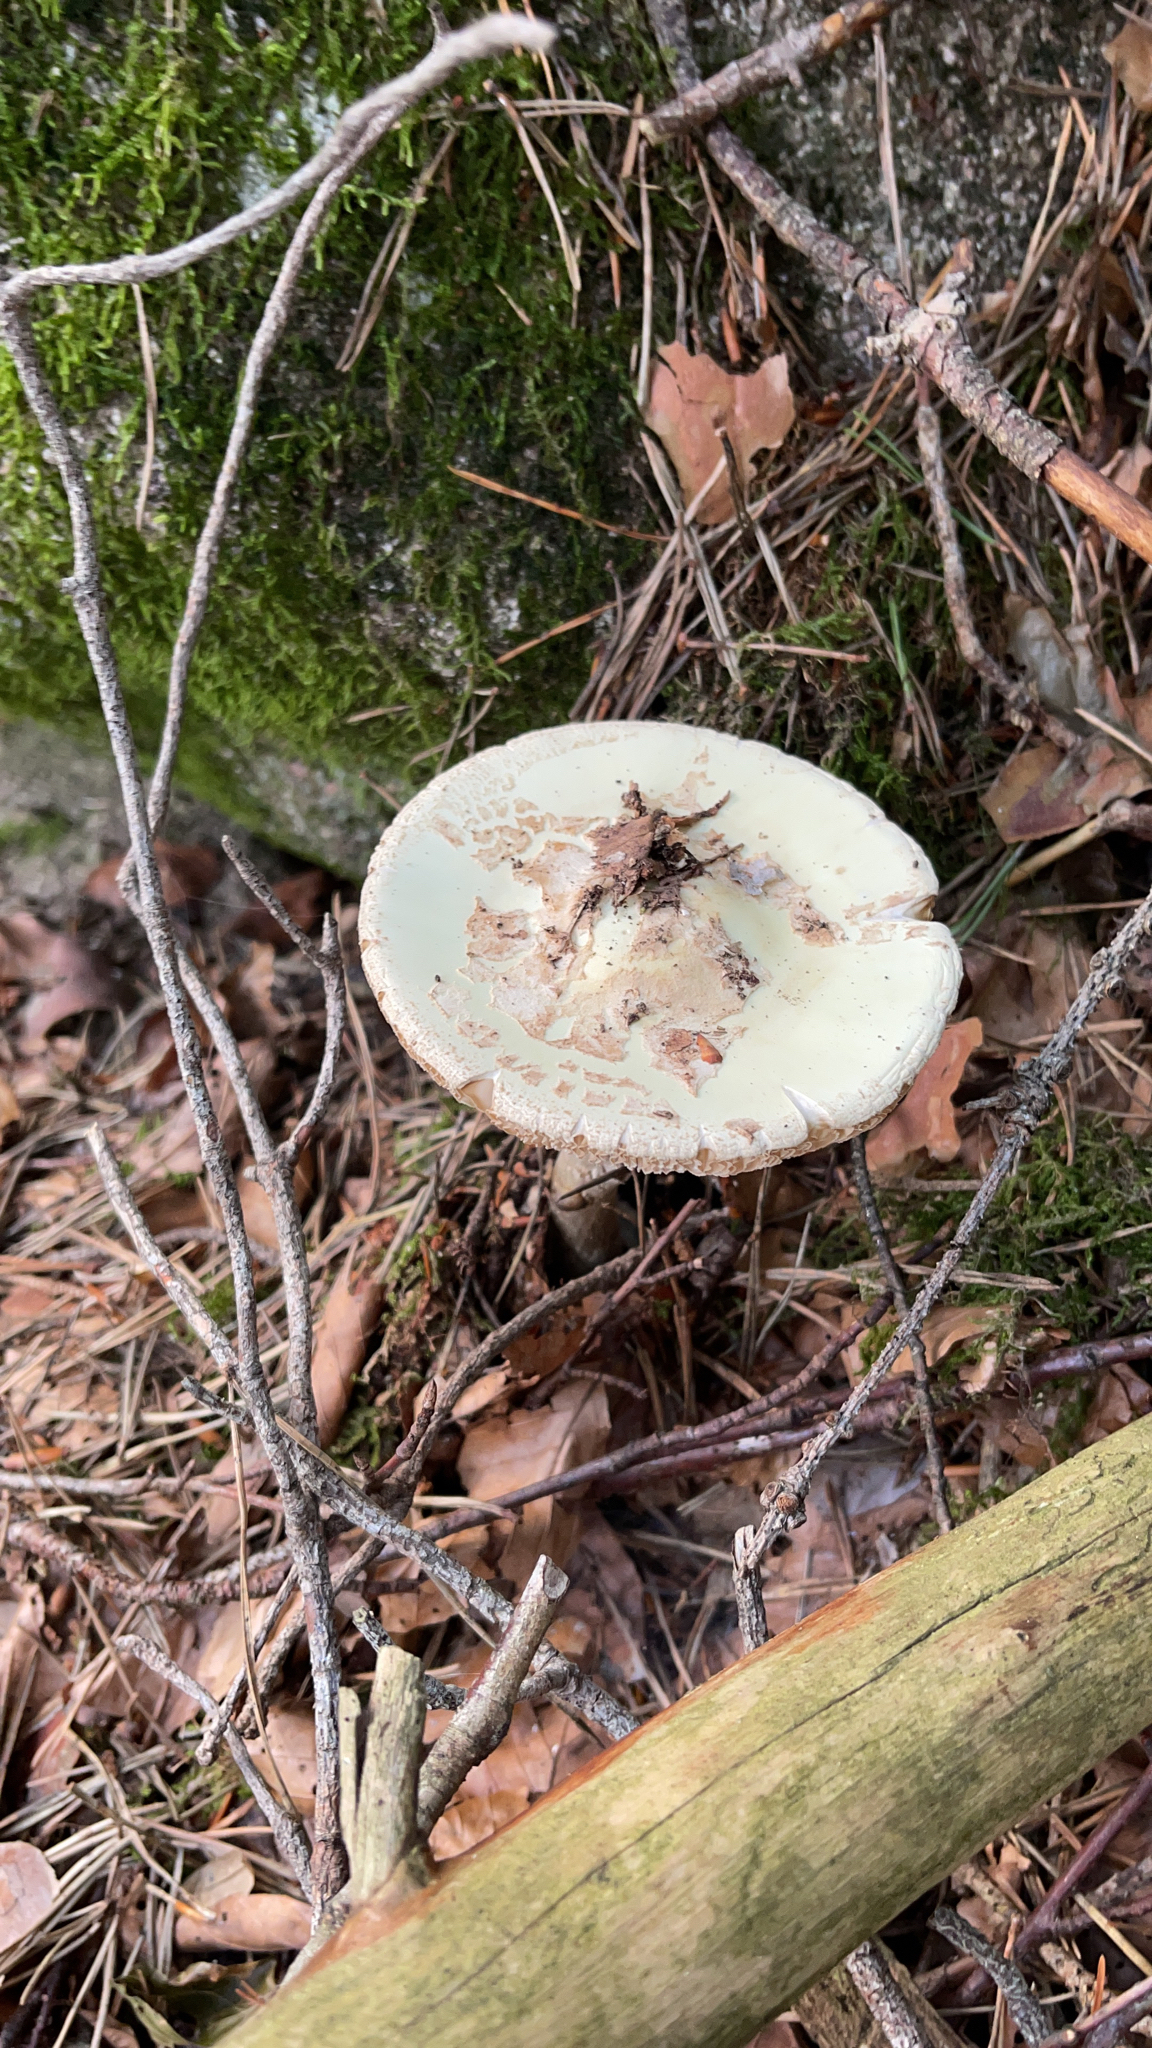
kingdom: Fungi
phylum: Basidiomycota
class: Agaricomycetes
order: Agaricales
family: Amanitaceae
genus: Amanita
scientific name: Amanita citrina
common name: False death-cap
